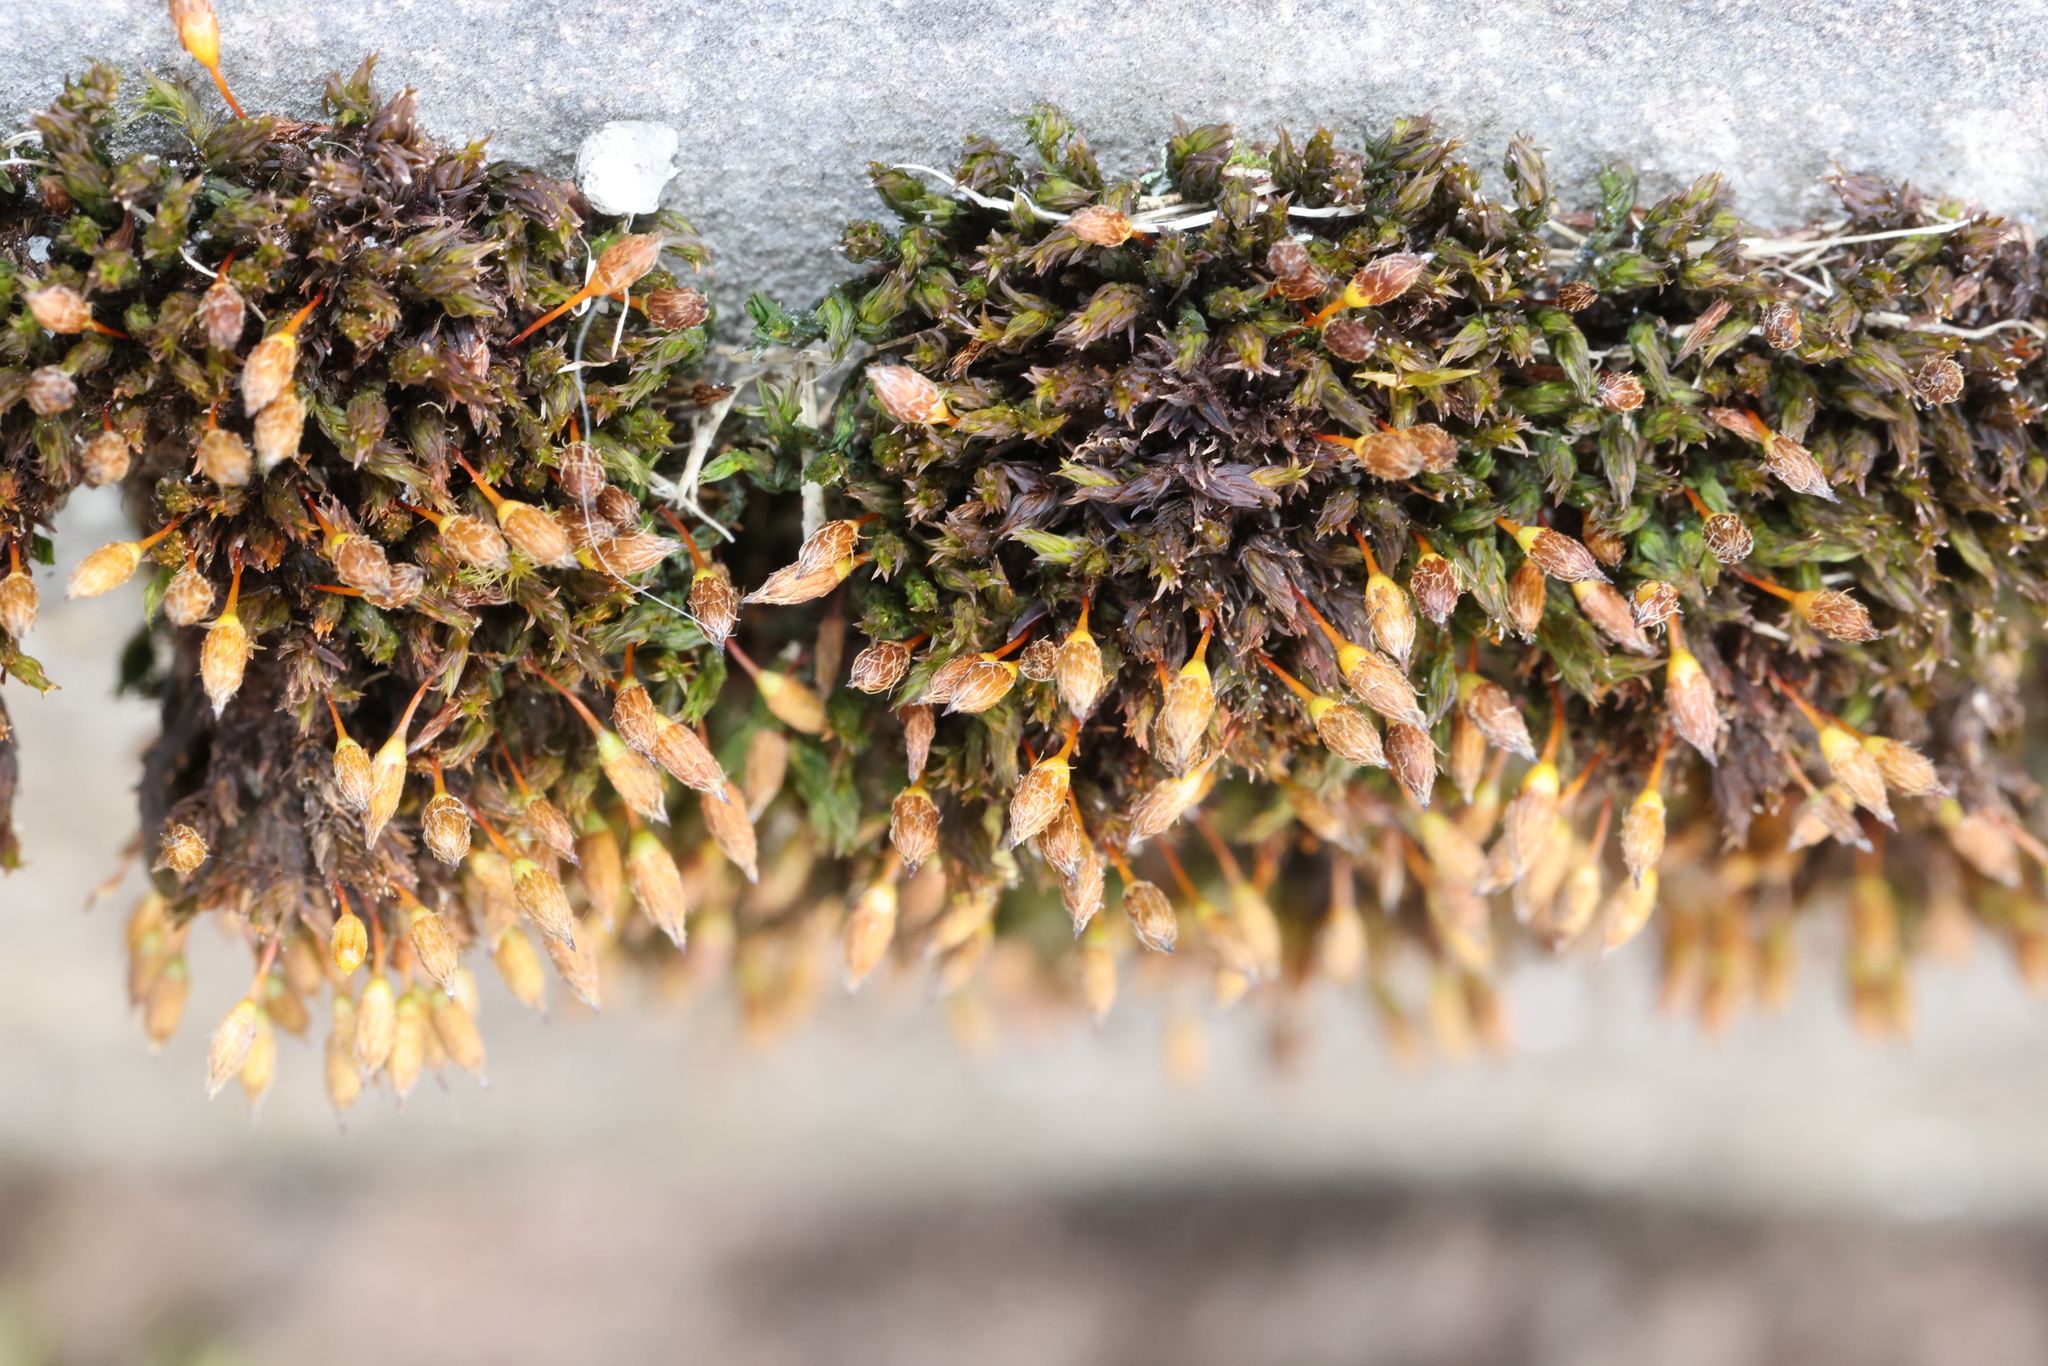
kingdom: Plantae
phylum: Bryophyta
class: Bryopsida
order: Orthotrichales
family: Orthotrichaceae
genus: Orthotrichum
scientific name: Orthotrichum anomalum
